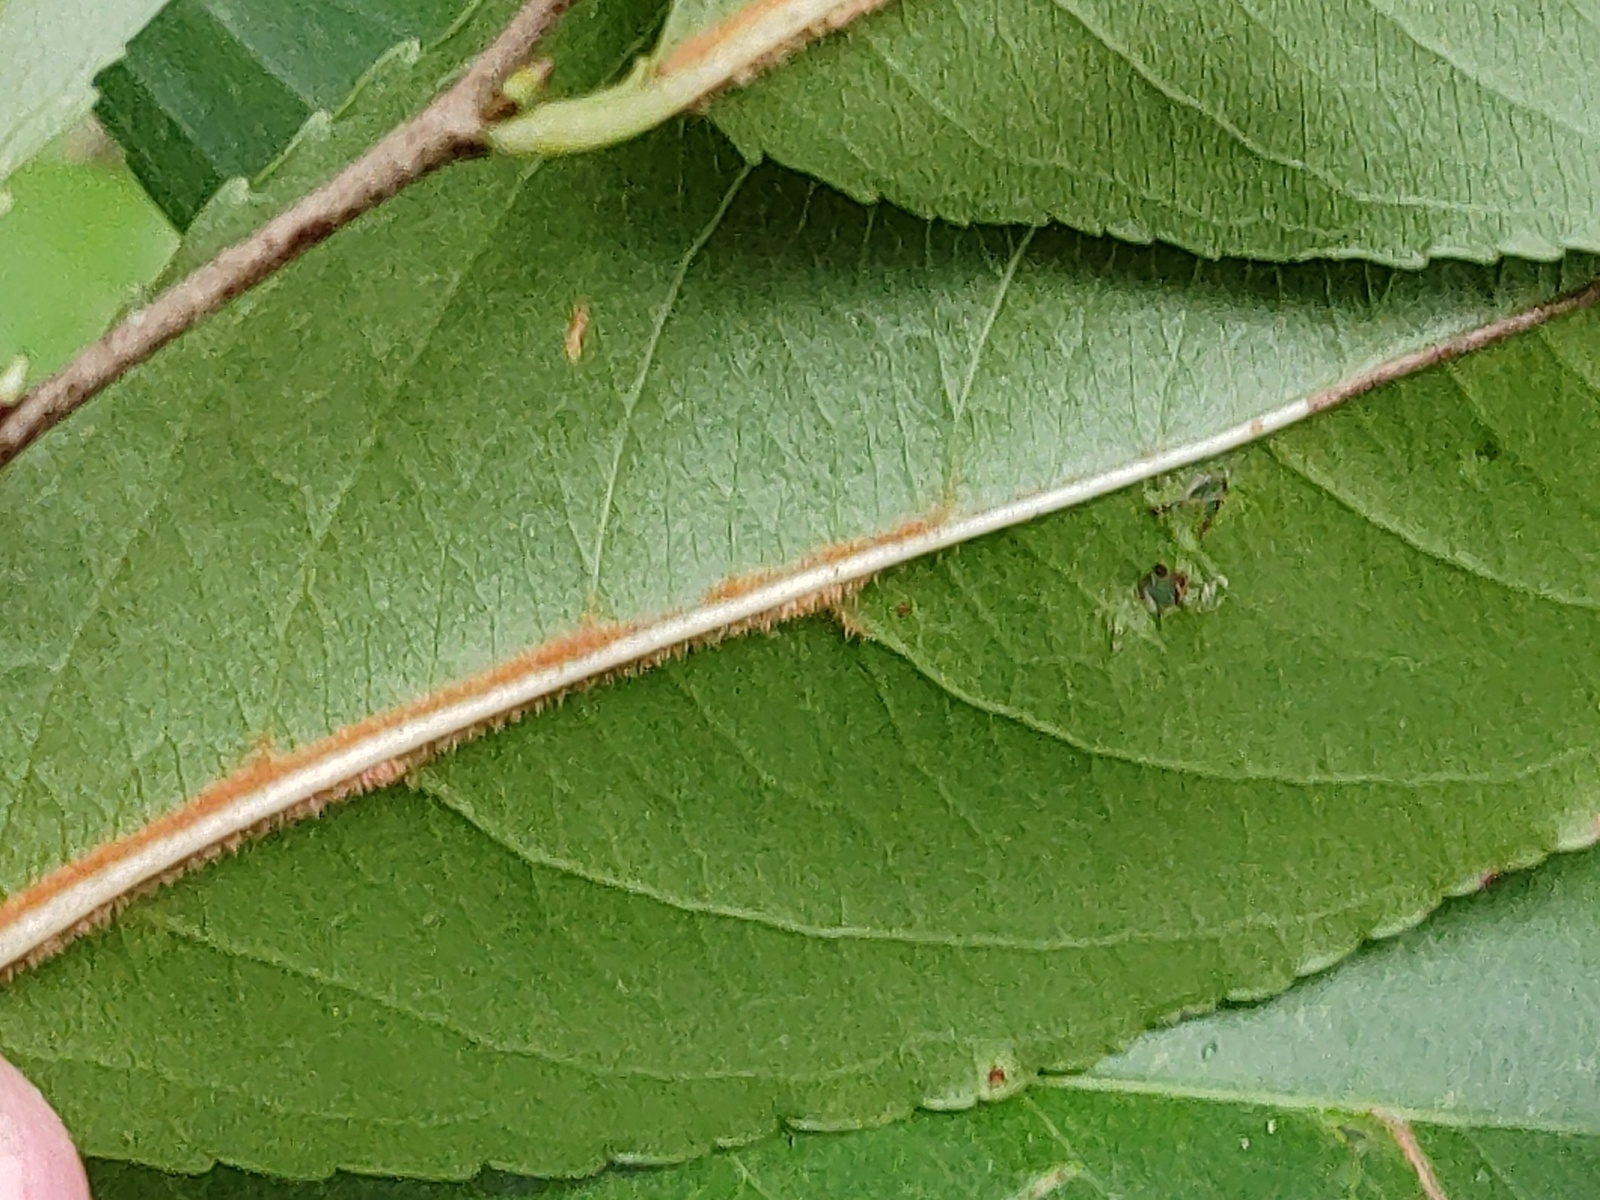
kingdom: Plantae
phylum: Tracheophyta
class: Magnoliopsida
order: Rosales
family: Rosaceae
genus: Prunus
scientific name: Prunus serotina
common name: Black cherry
